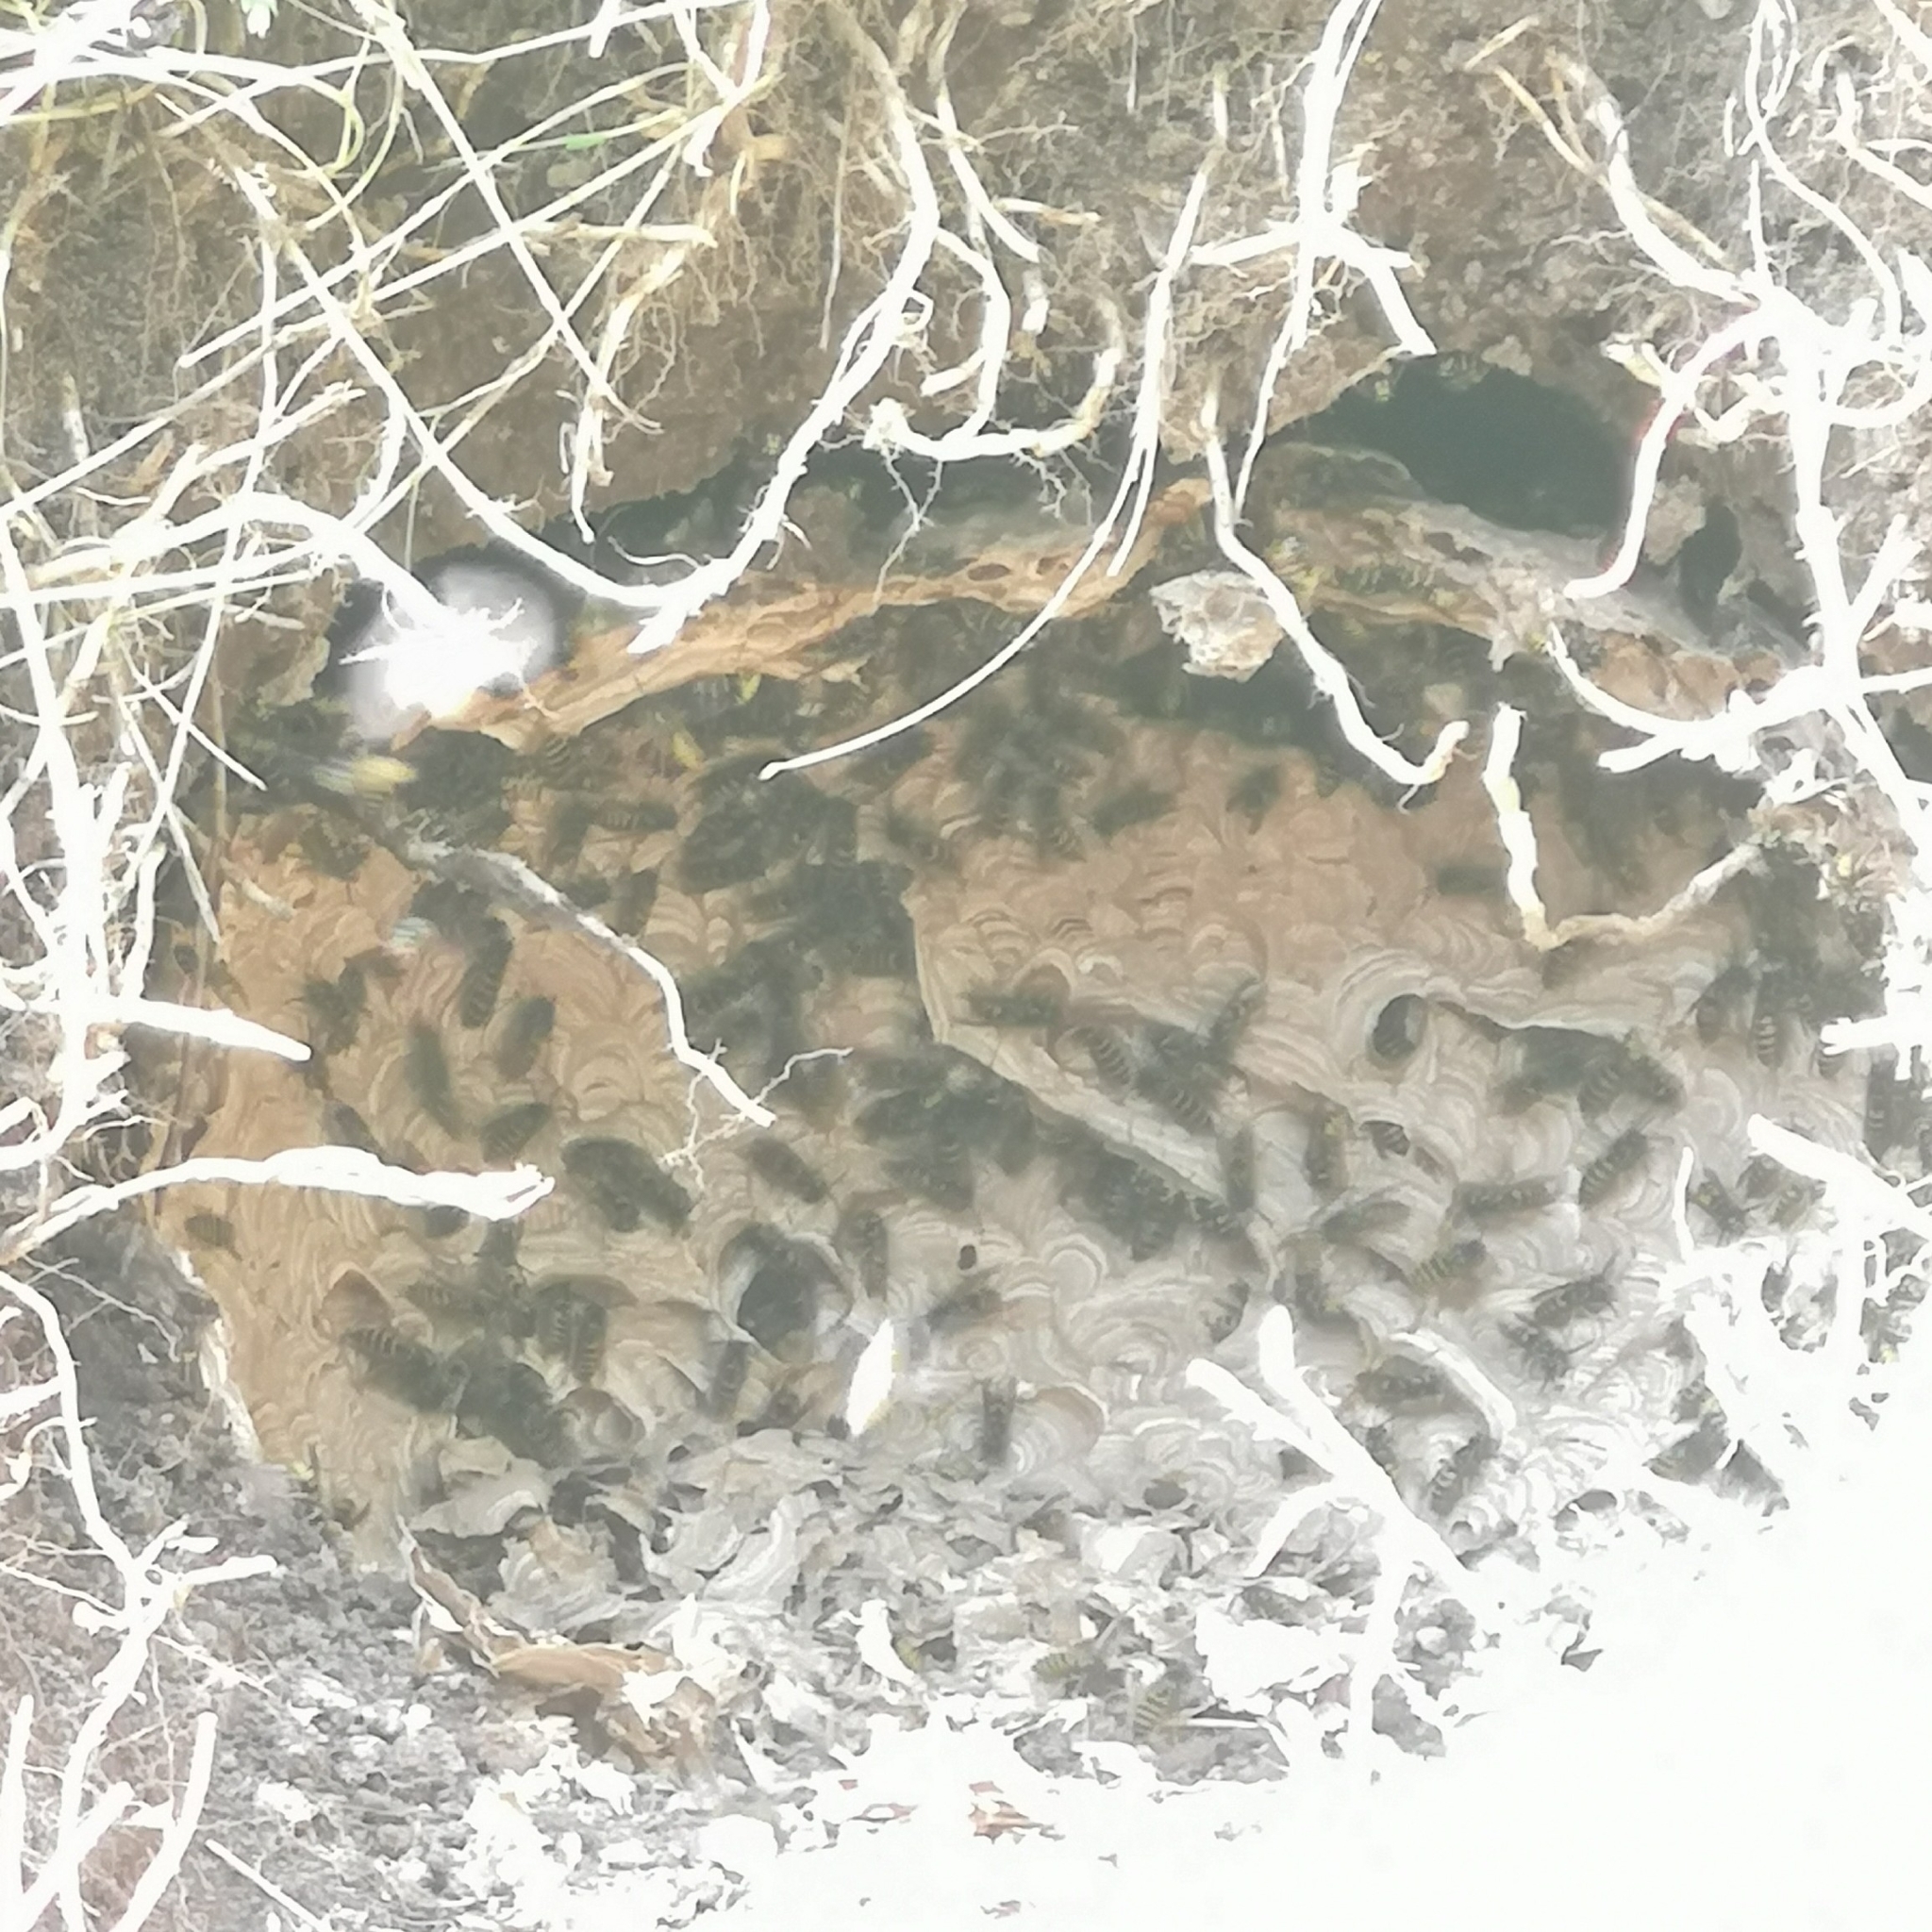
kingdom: Animalia
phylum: Arthropoda
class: Insecta
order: Hymenoptera
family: Vespidae
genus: Vespula
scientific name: Vespula vulgaris
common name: Common wasp
